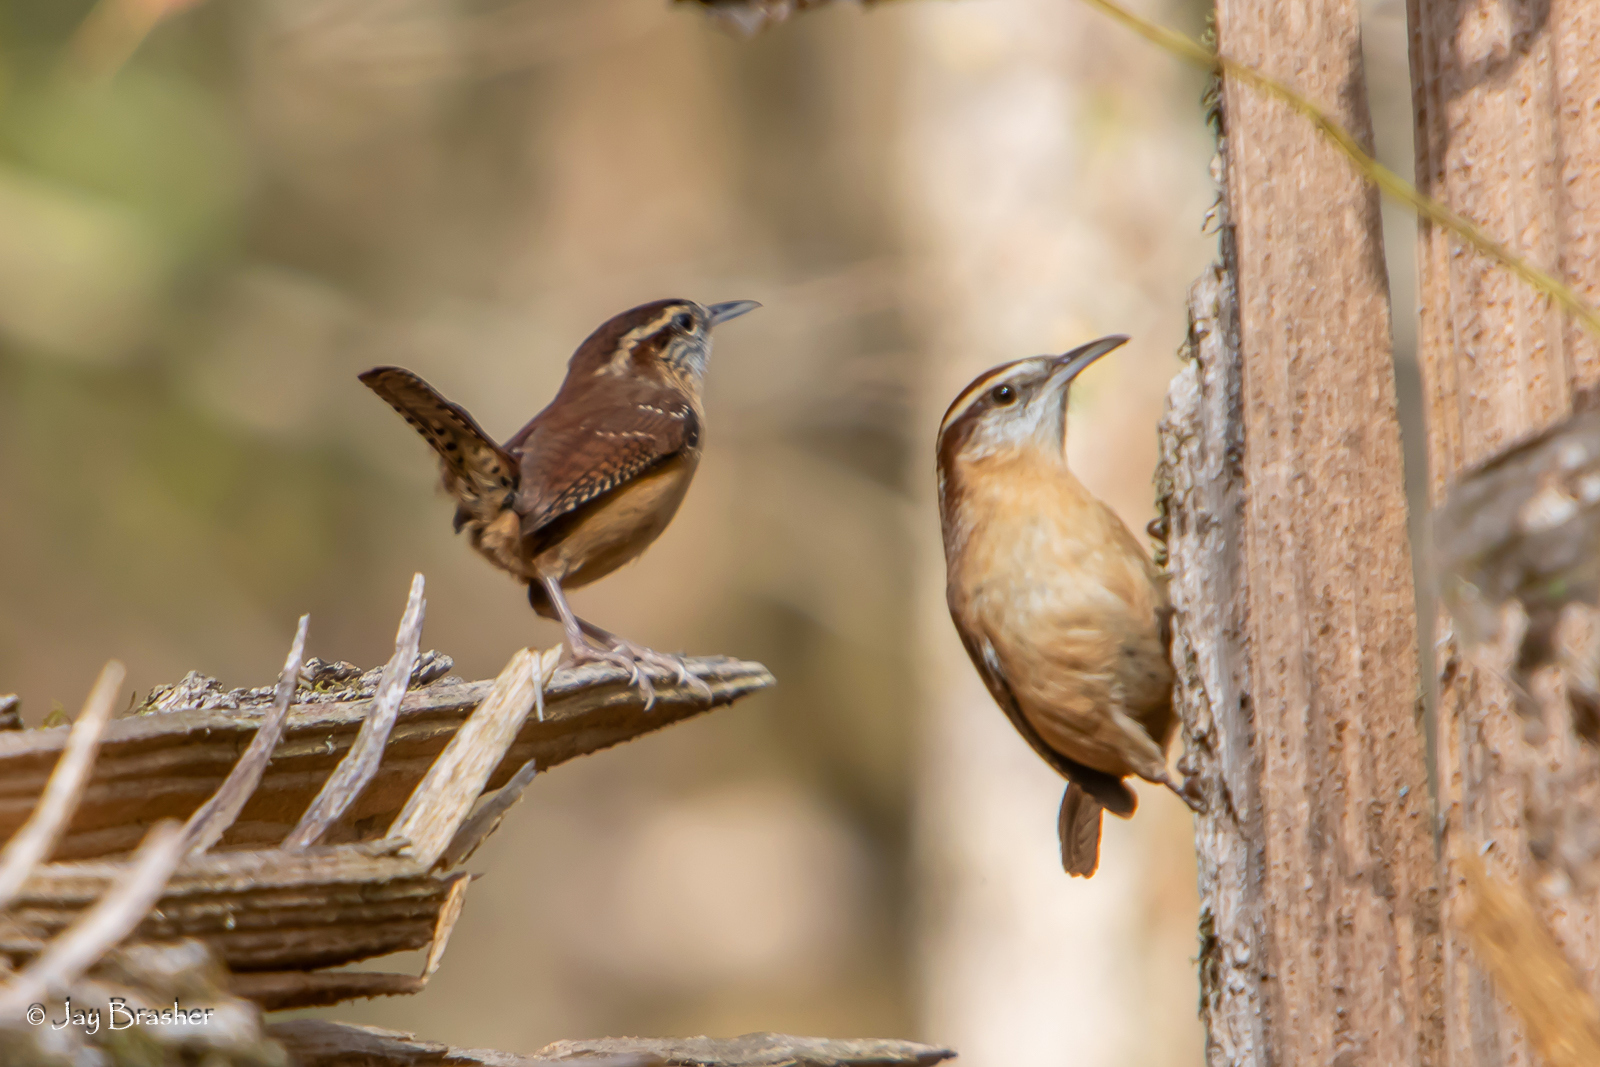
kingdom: Animalia
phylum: Chordata
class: Aves
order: Passeriformes
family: Troglodytidae
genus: Thryothorus
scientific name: Thryothorus ludovicianus
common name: Carolina wren
